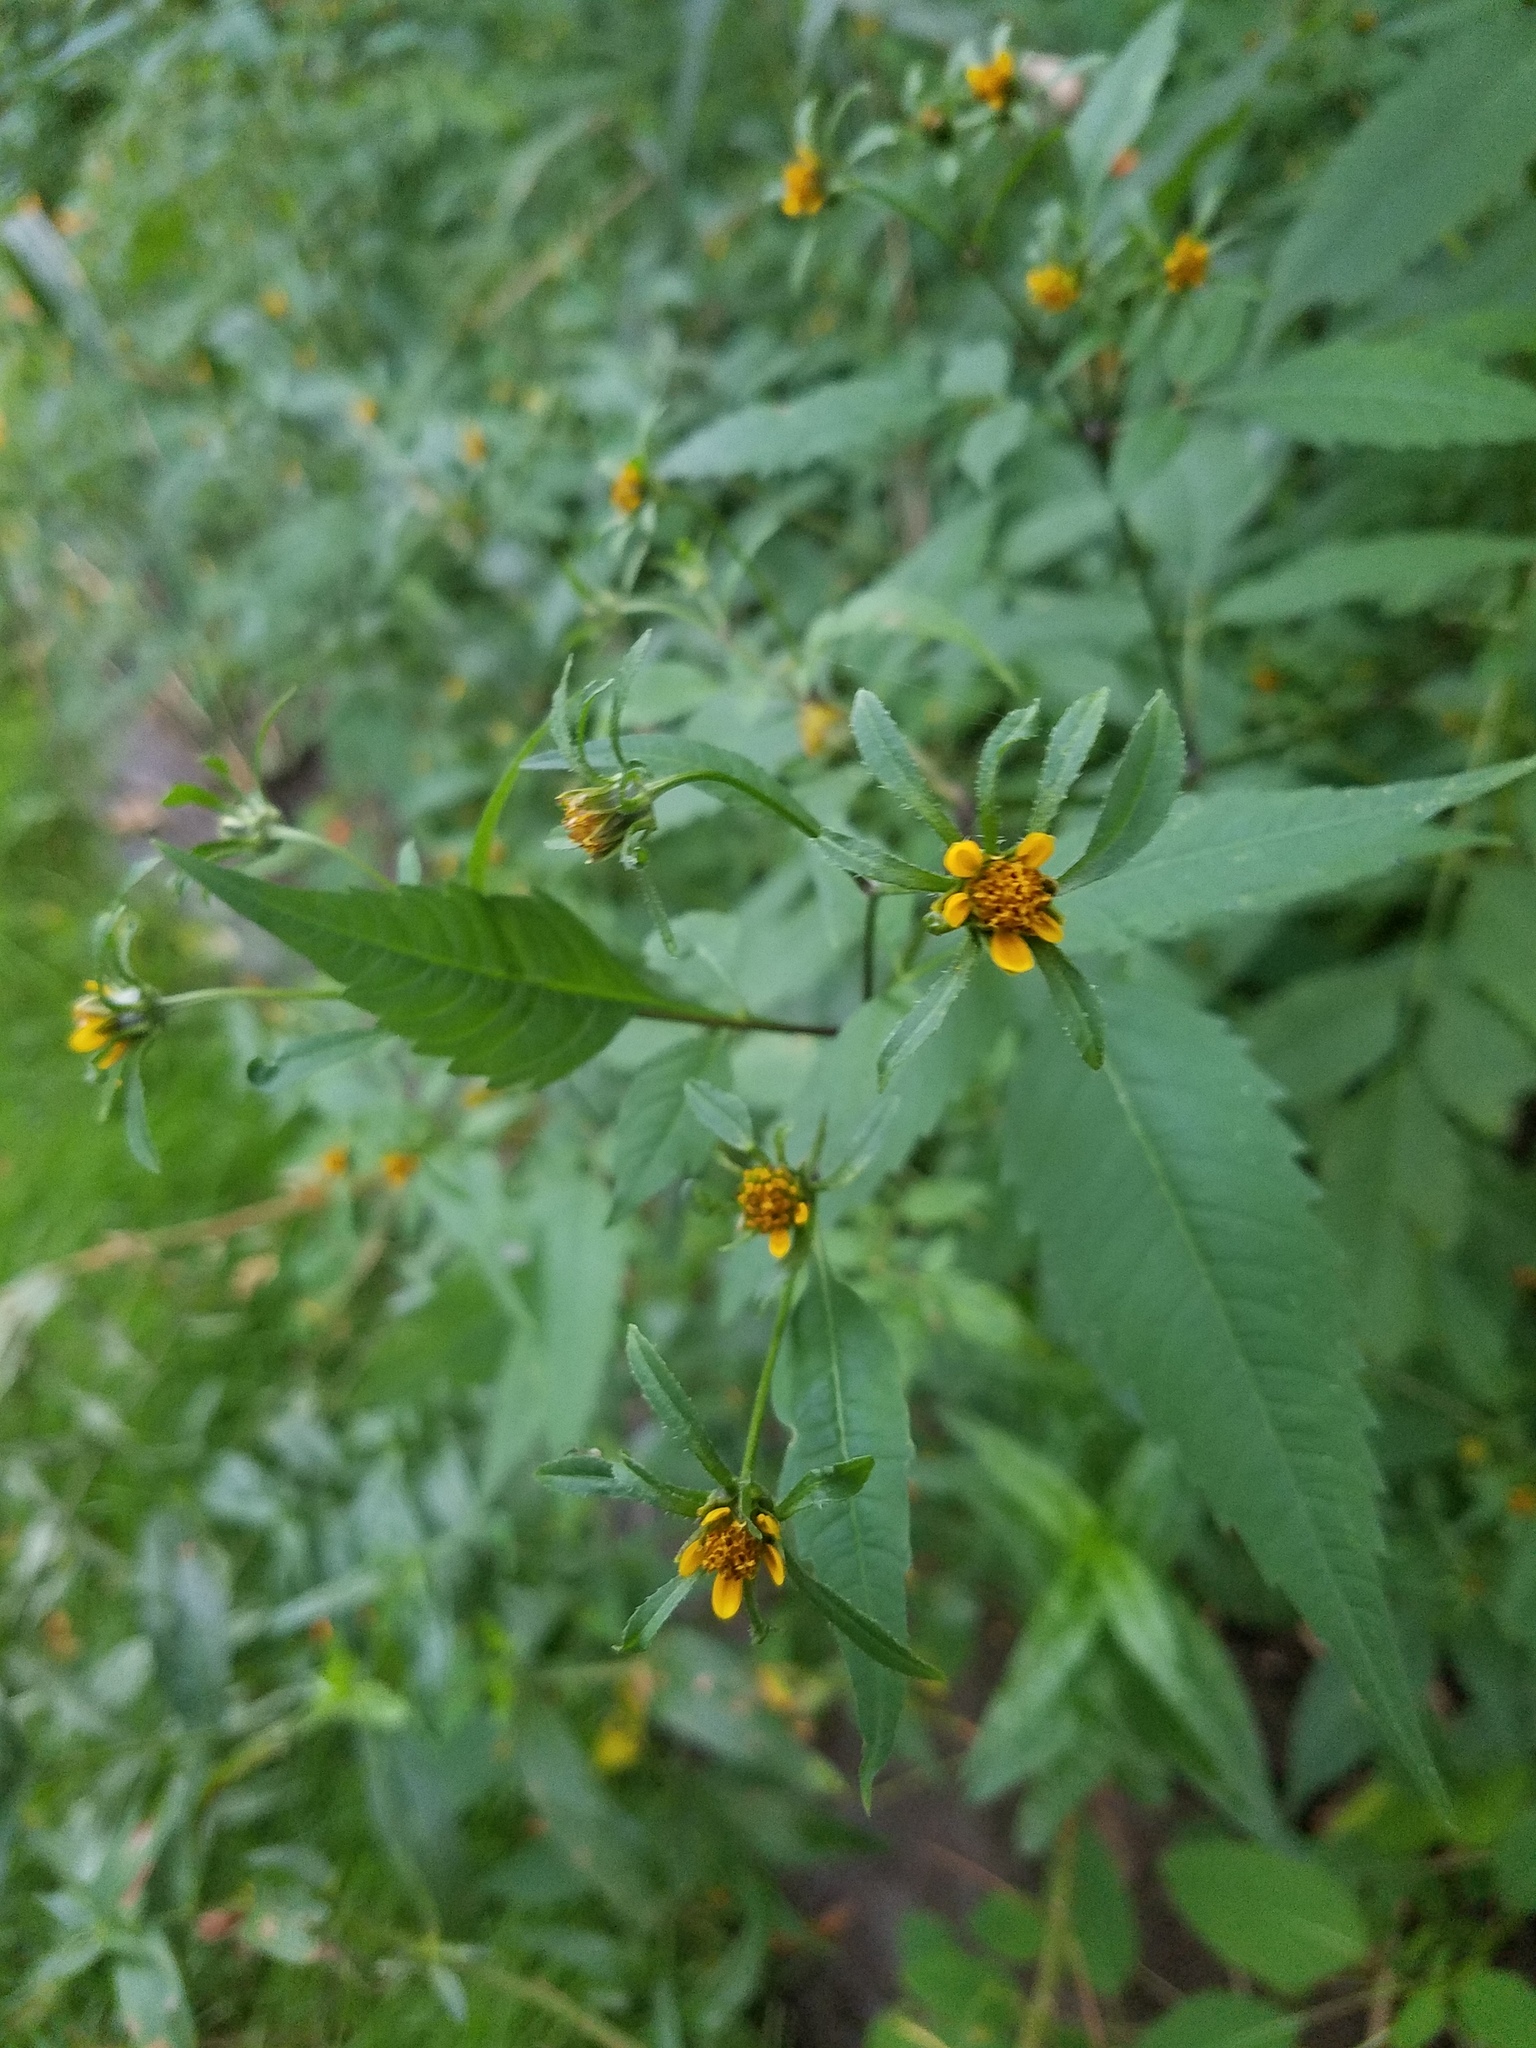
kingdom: Plantae
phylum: Tracheophyta
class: Magnoliopsida
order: Asterales
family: Asteraceae
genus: Bidens
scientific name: Bidens frondosa
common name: Beggarticks
